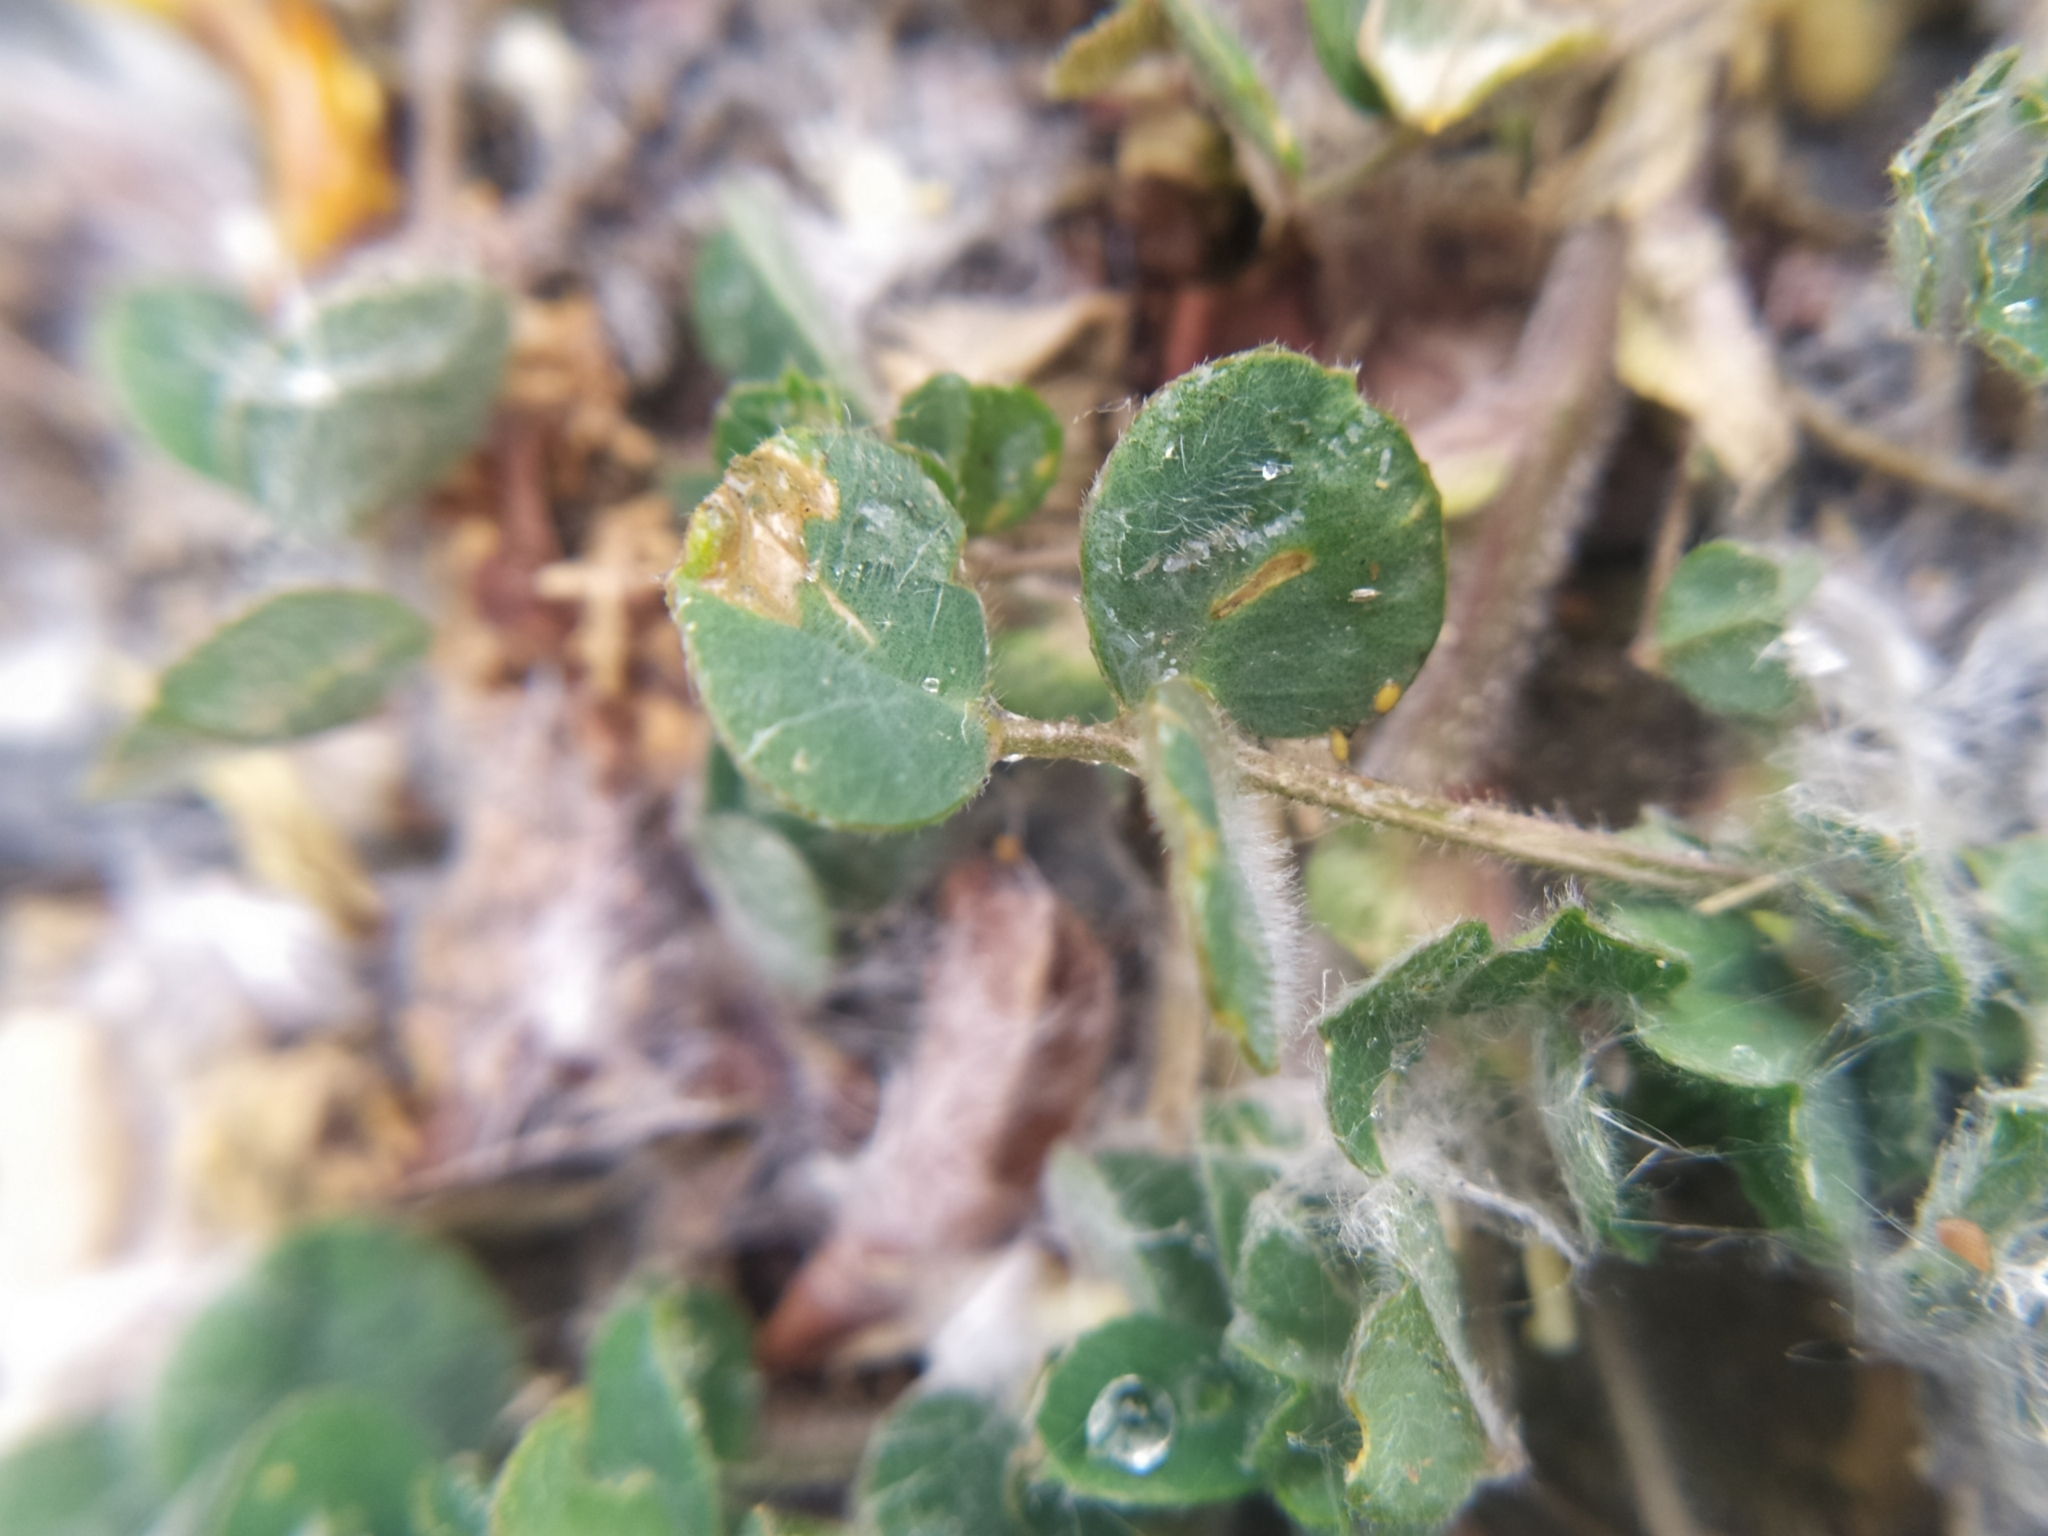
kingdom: Plantae
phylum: Tracheophyta
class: Magnoliopsida
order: Fabales
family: Fabaceae
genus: Medicago
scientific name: Medicago minima
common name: Little bur-clover
